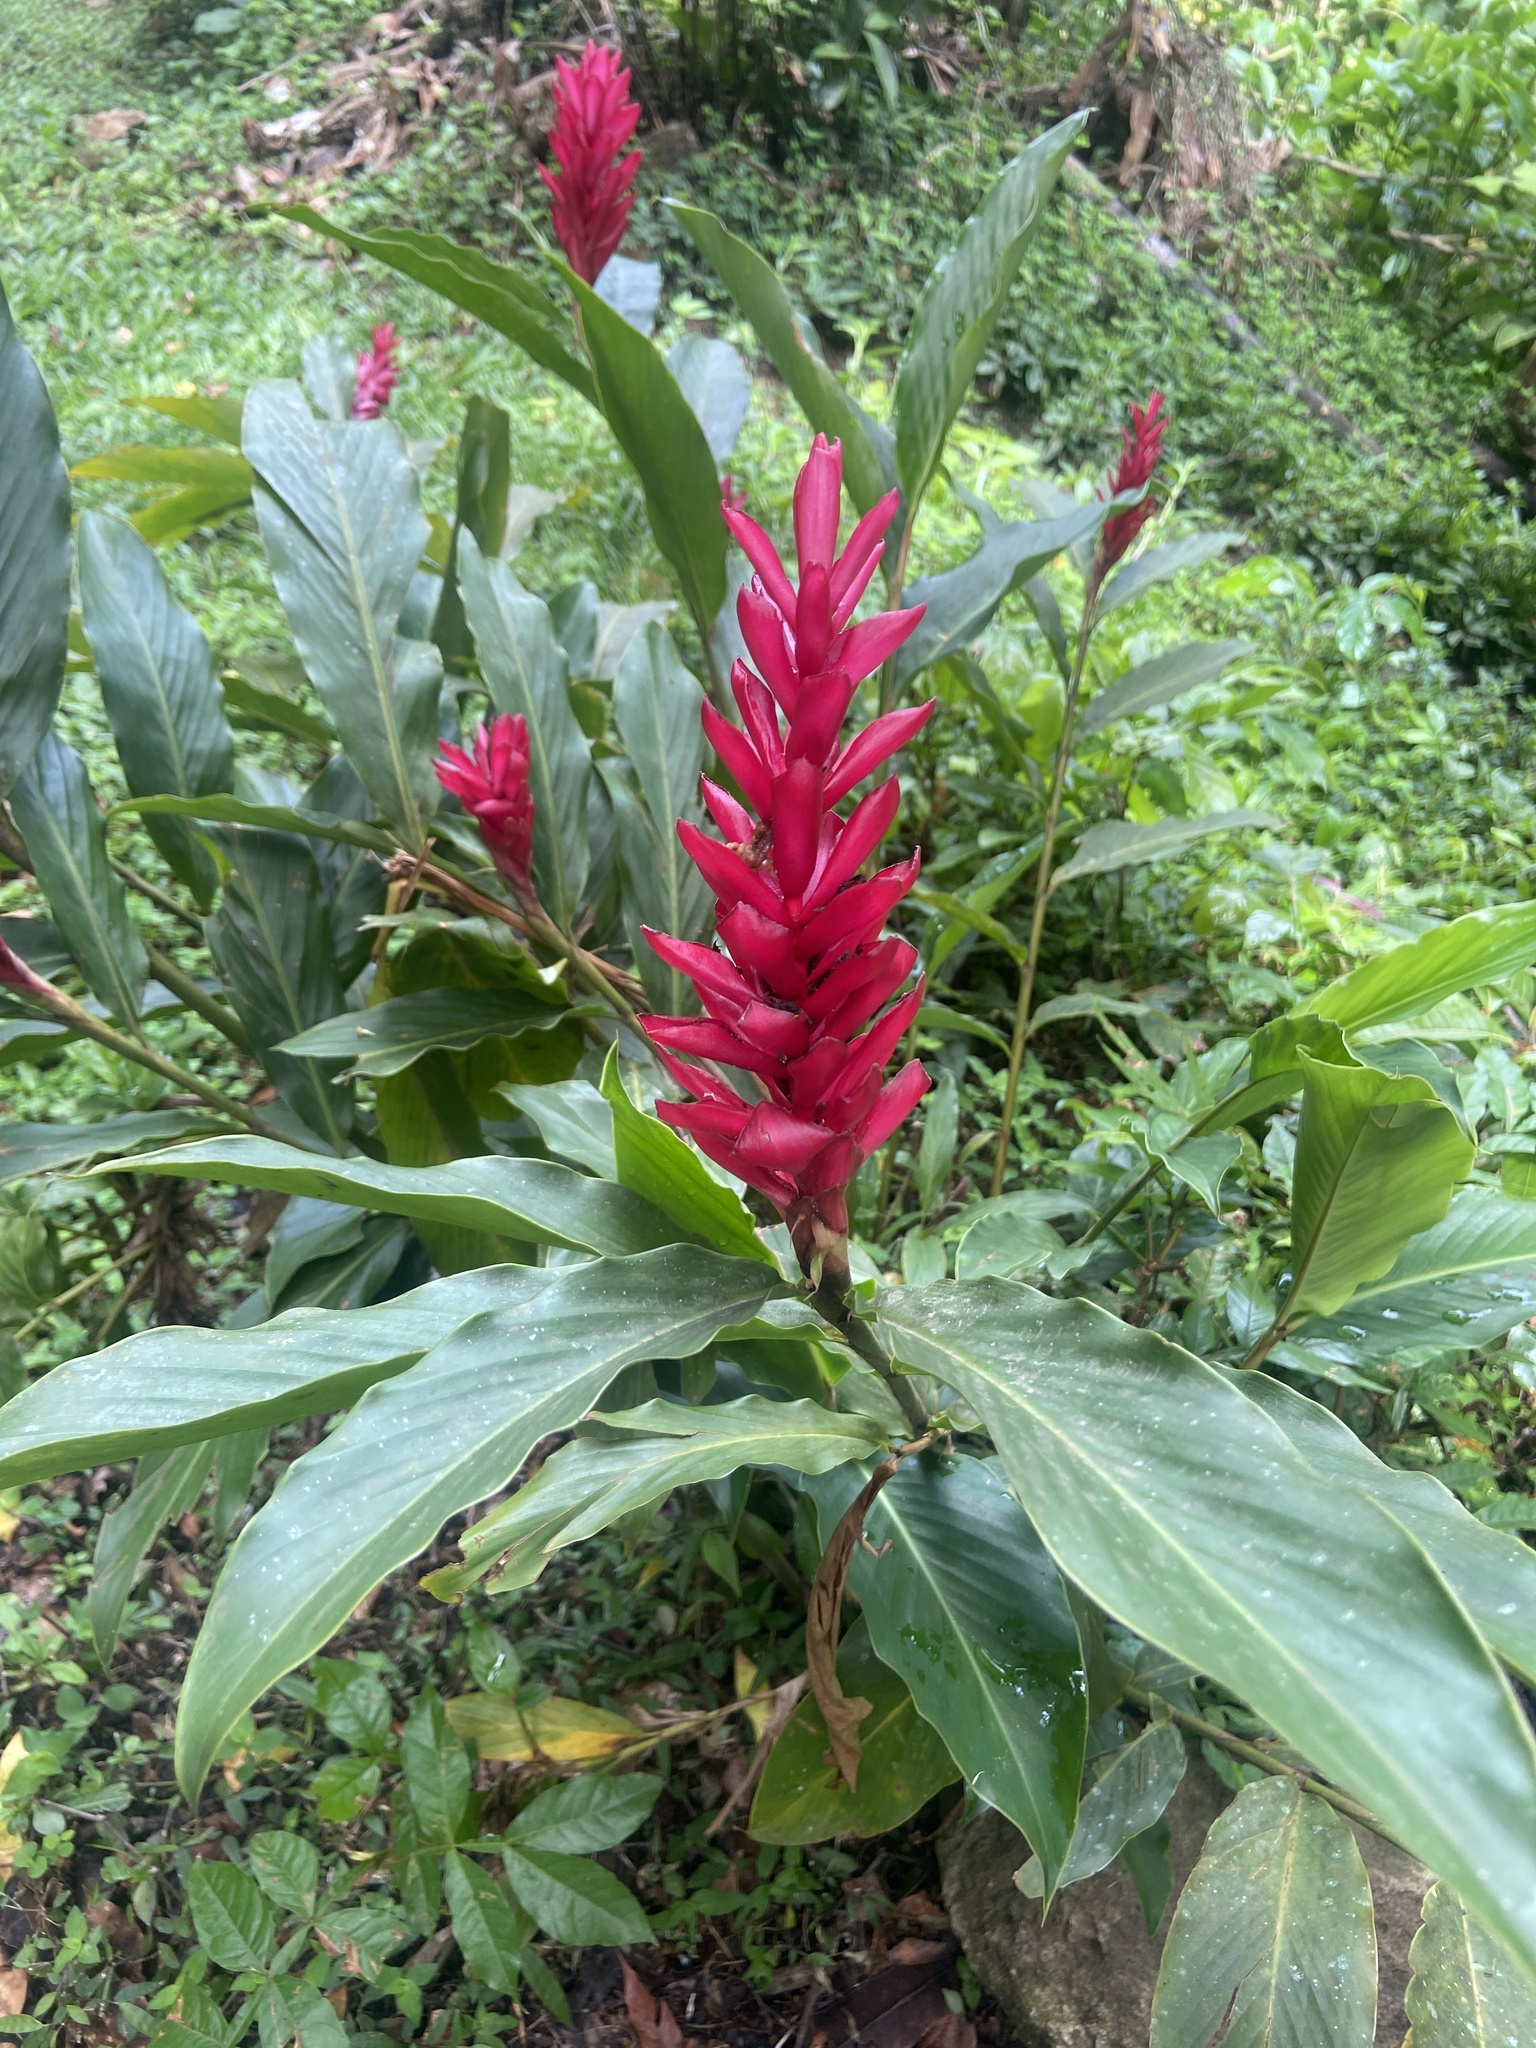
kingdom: Plantae
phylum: Tracheophyta
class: Liliopsida
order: Zingiberales
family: Zingiberaceae
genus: Alpinia
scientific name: Alpinia purpurata
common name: Red ginger
